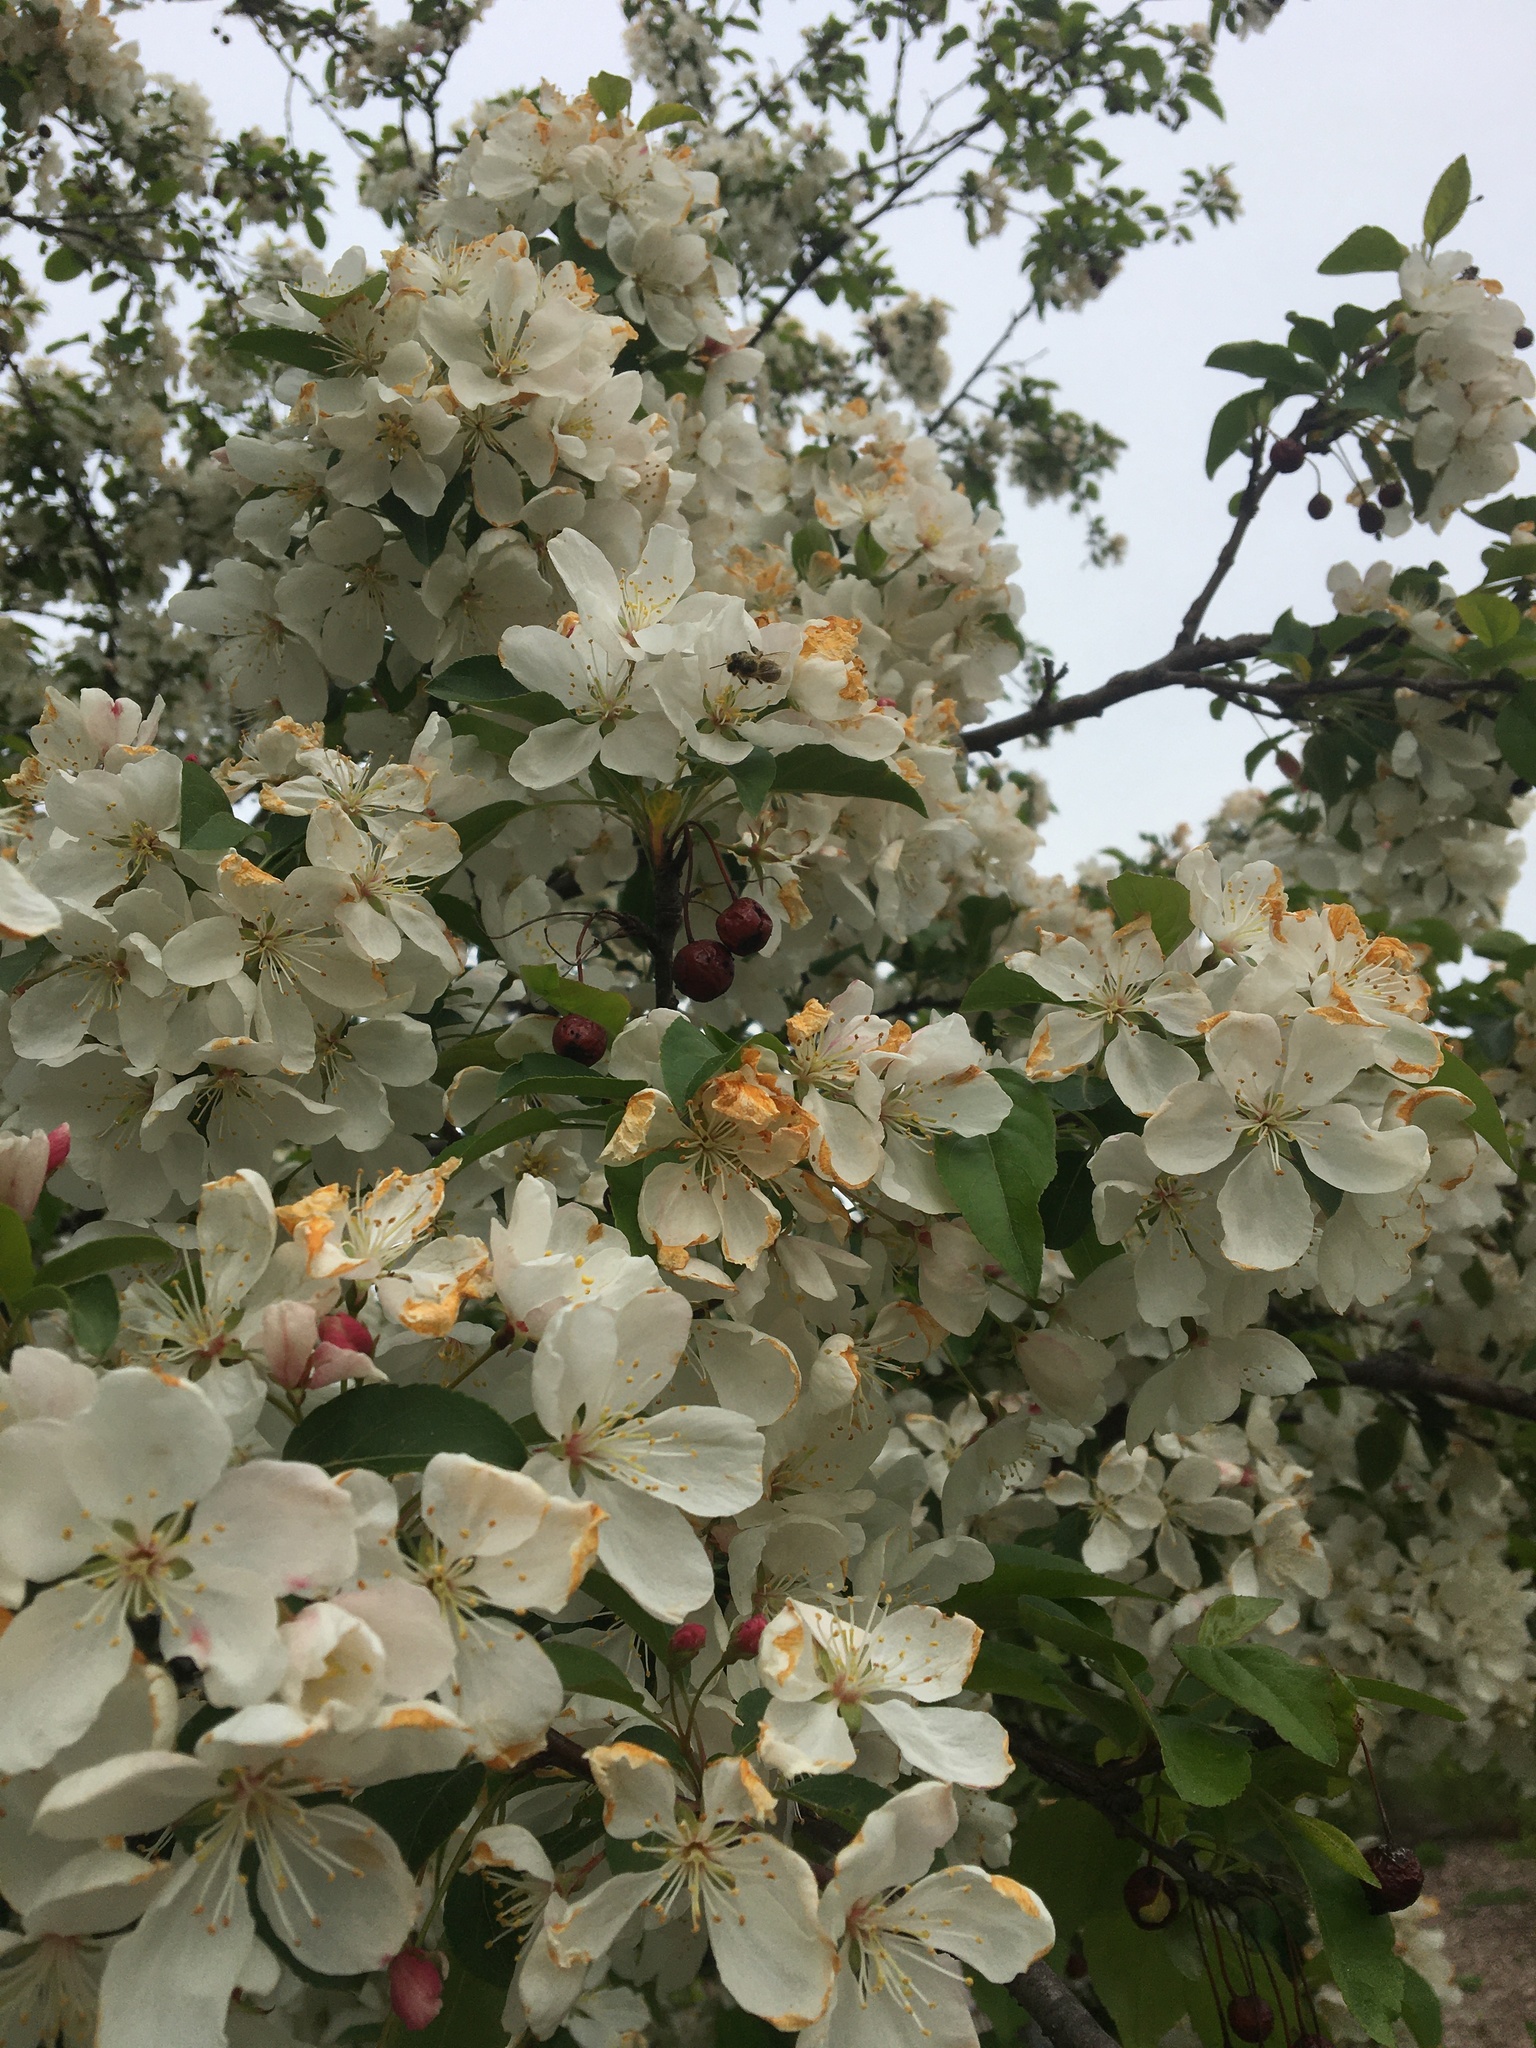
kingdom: Animalia
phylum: Arthropoda
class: Insecta
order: Hymenoptera
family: Apidae
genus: Apis
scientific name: Apis mellifera
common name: Honey bee
